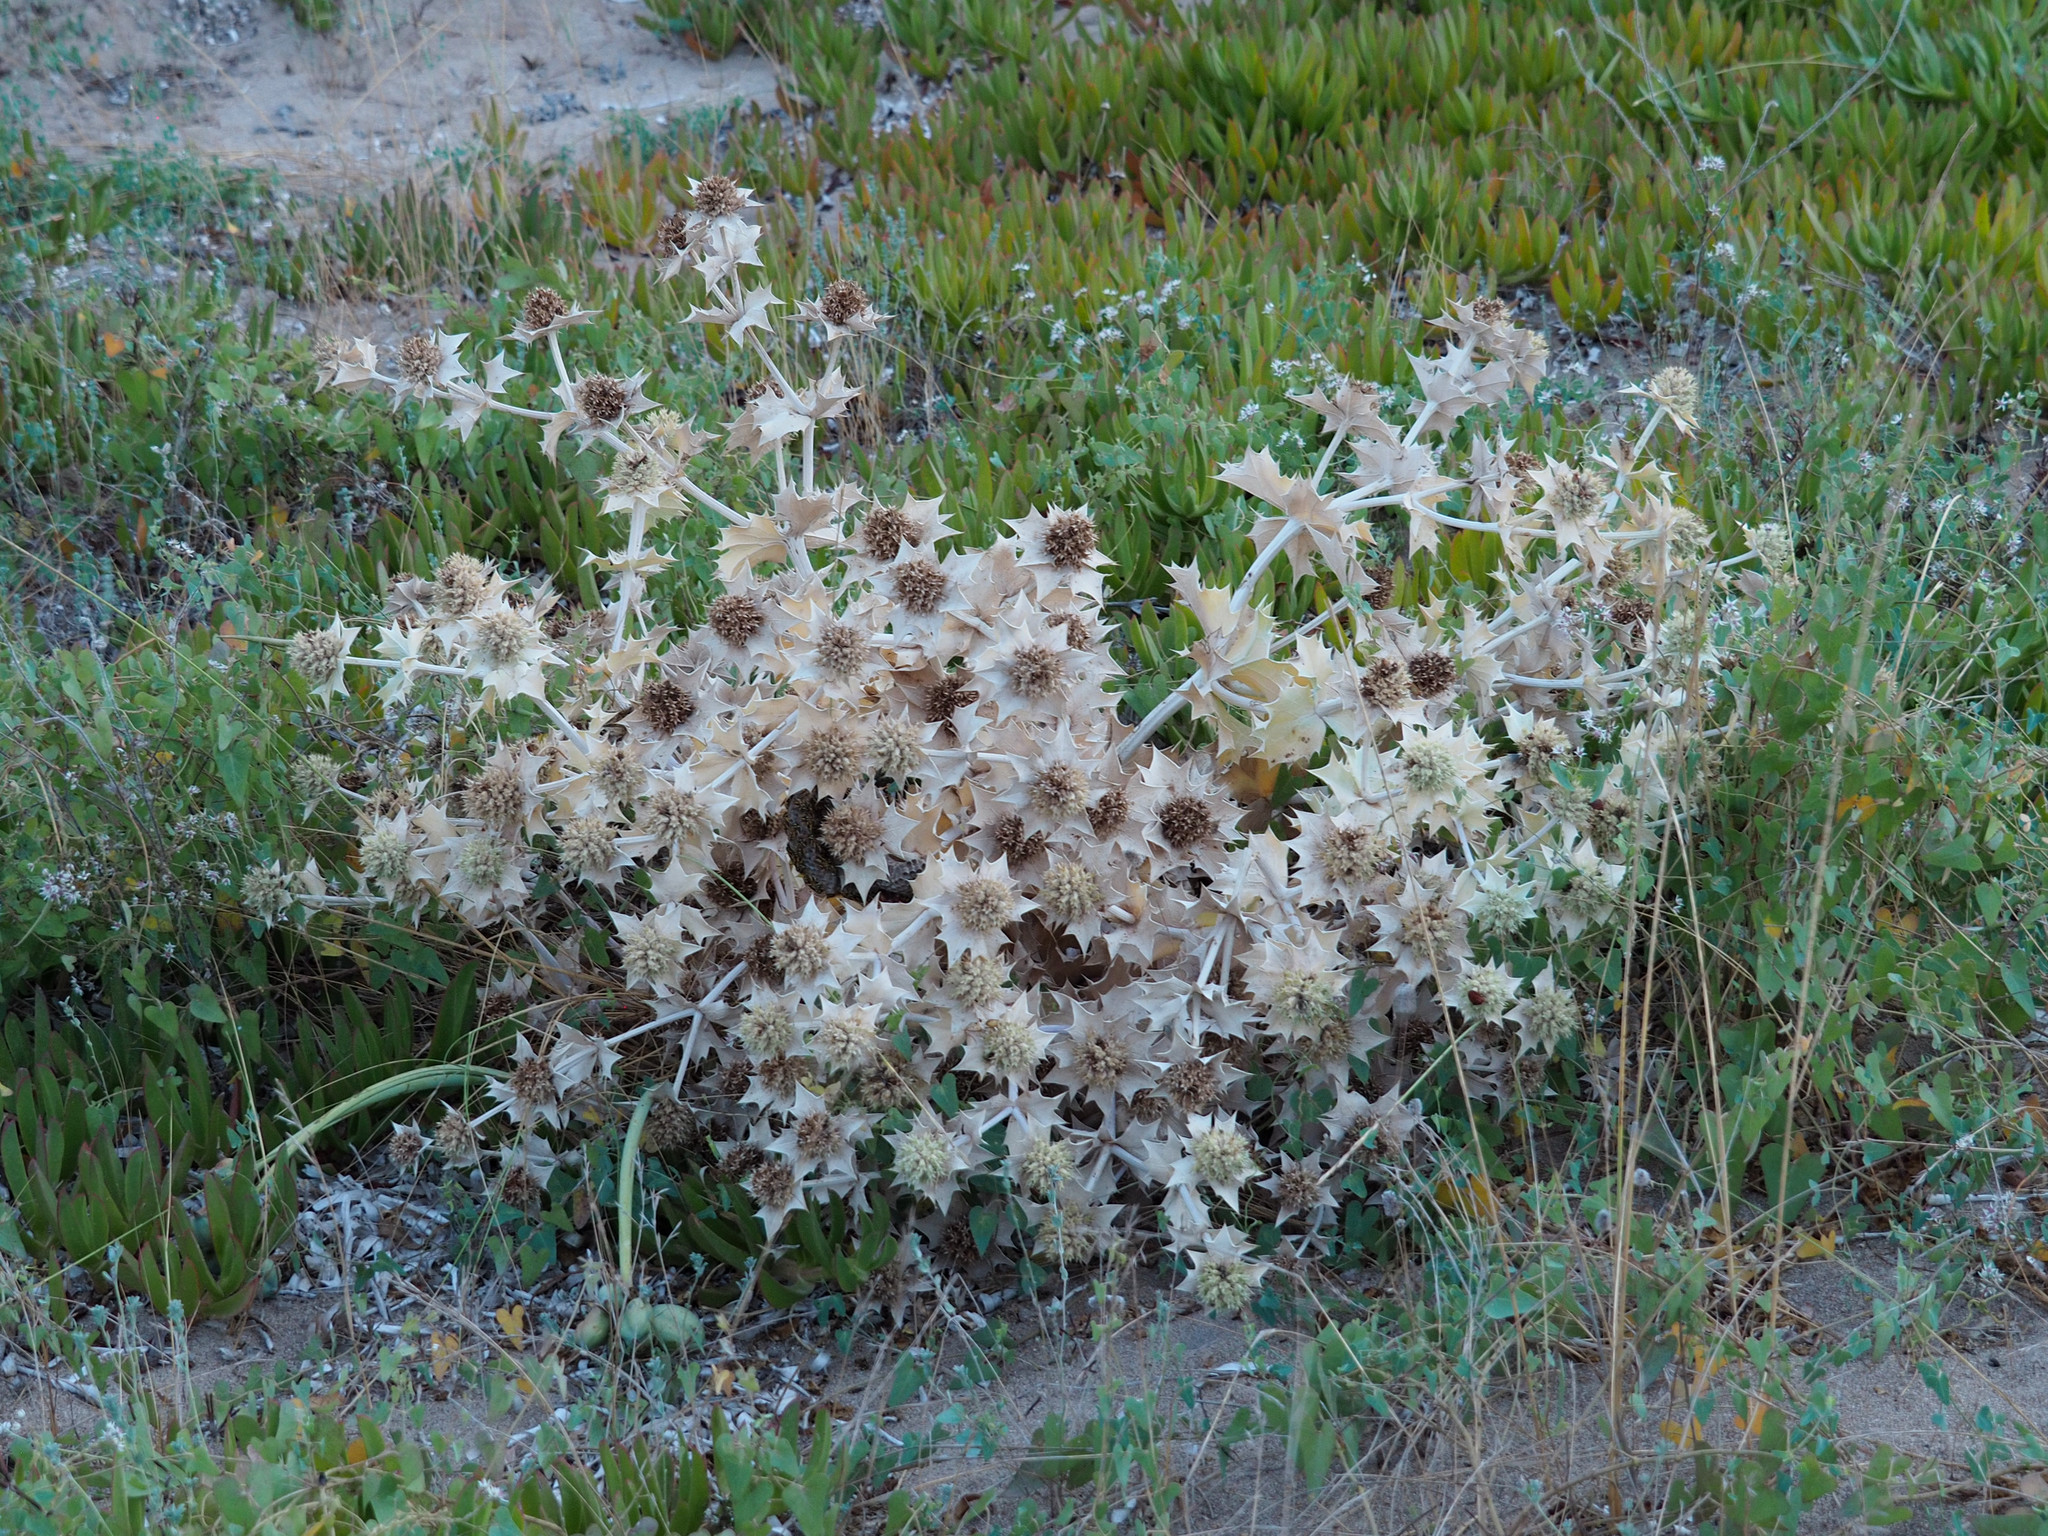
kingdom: Plantae
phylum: Tracheophyta
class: Magnoliopsida
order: Apiales
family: Apiaceae
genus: Eryngium
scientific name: Eryngium maritimum
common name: Sea-holly
